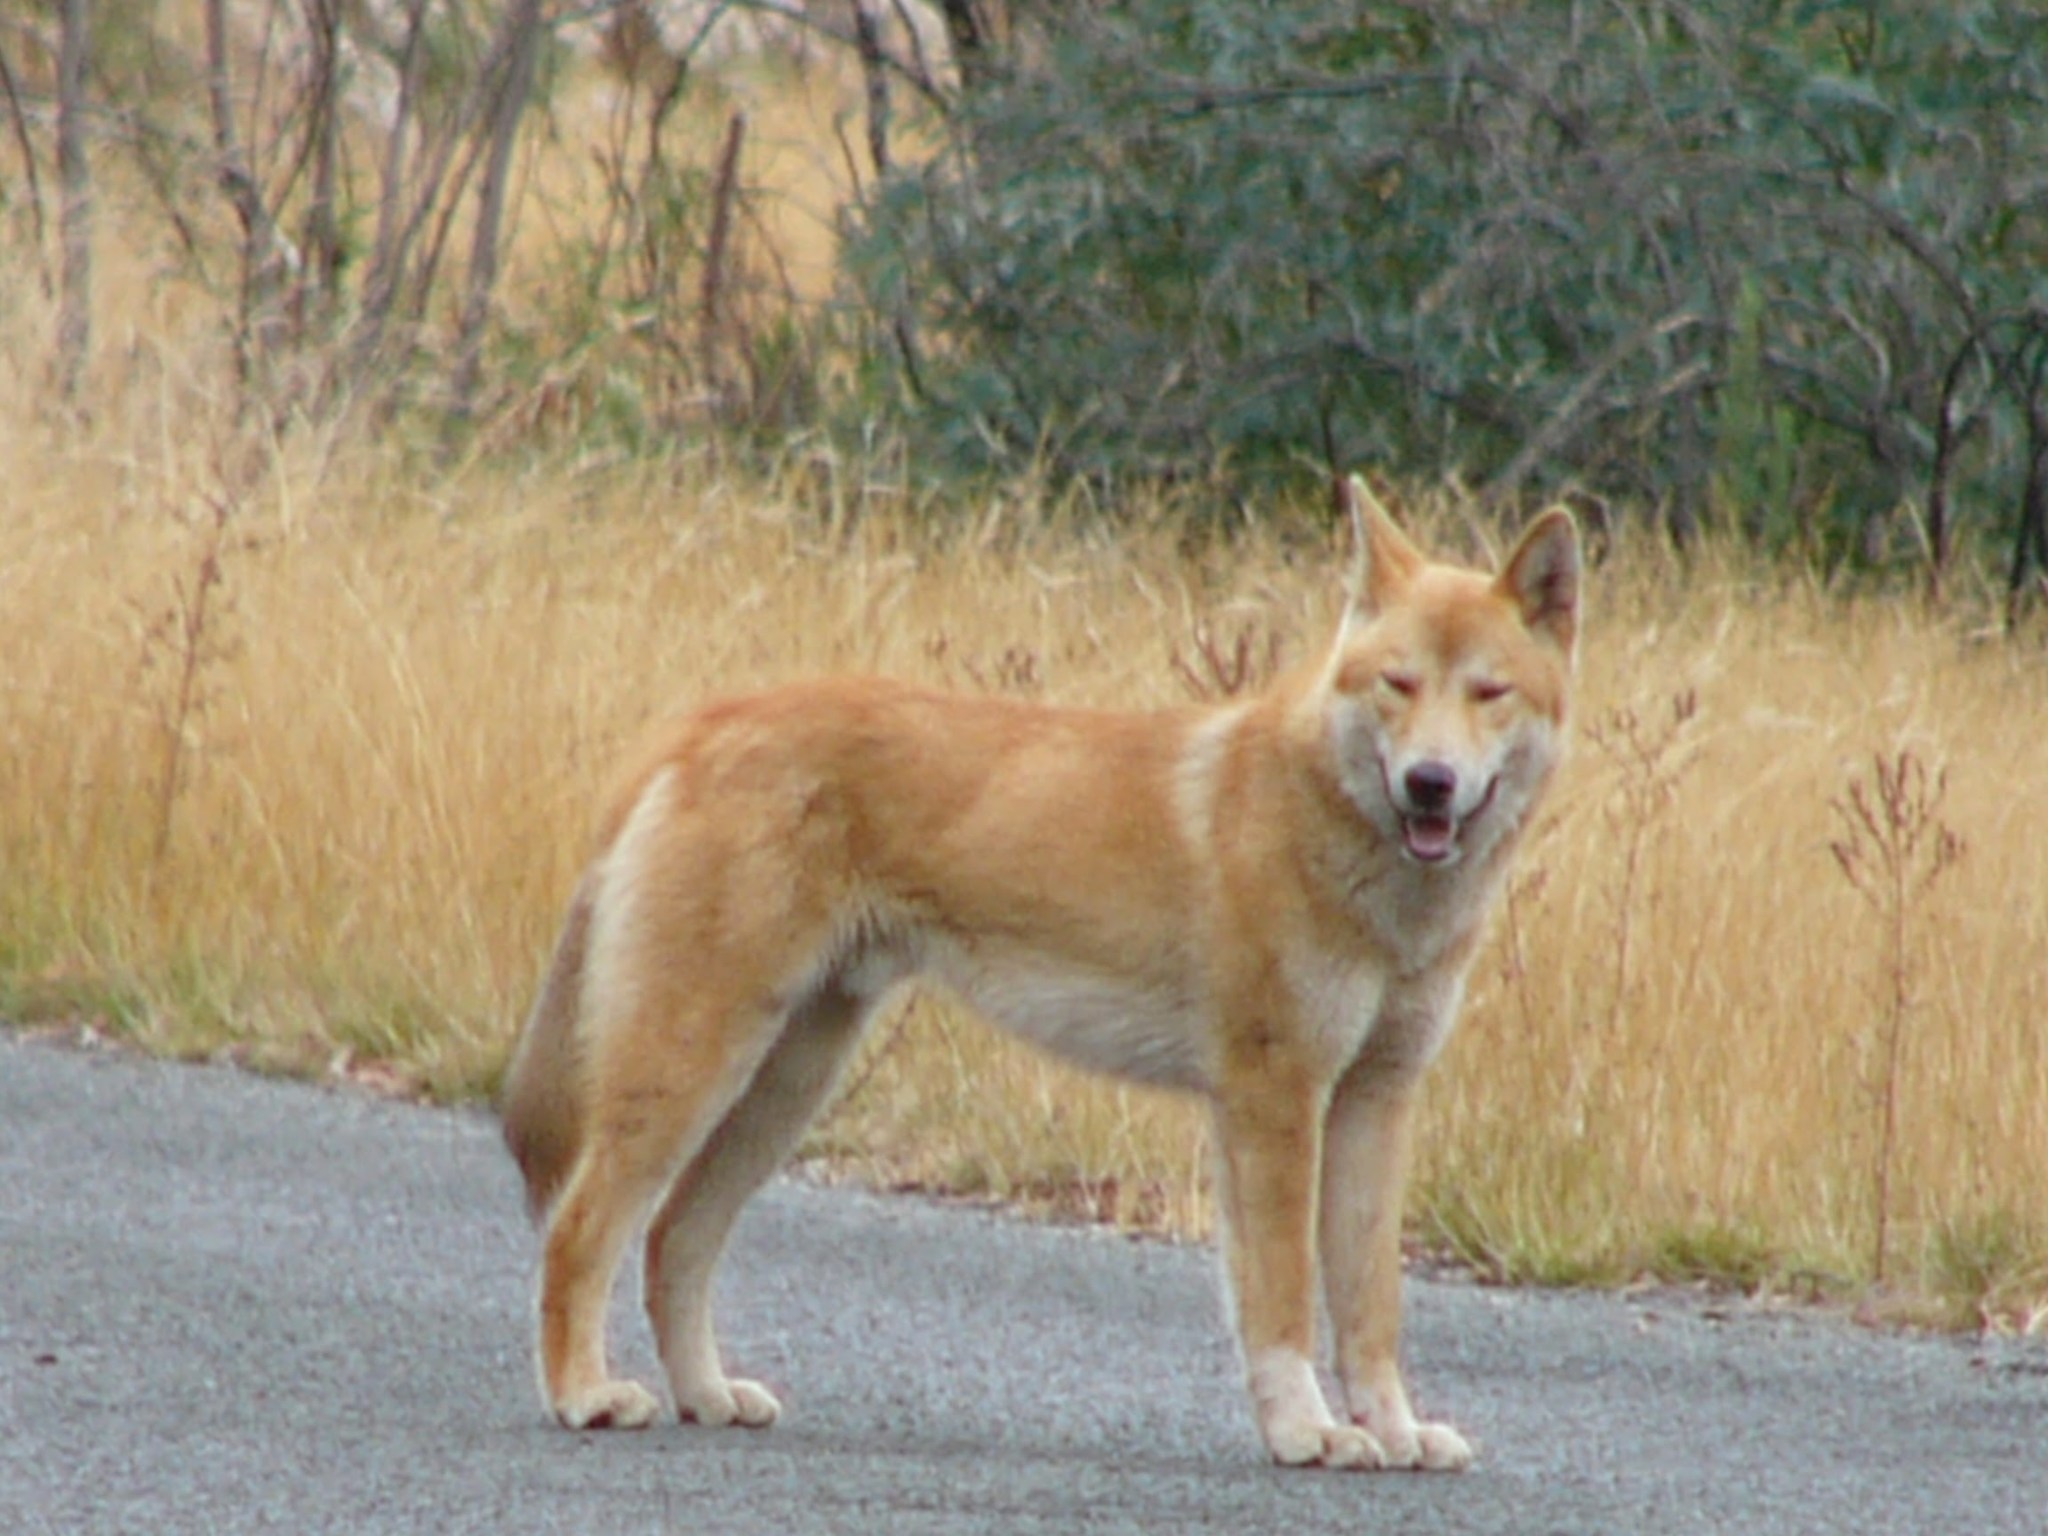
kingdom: Animalia
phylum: Chordata
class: Mammalia
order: Carnivora
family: Canidae
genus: Canis
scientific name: Canis lupus
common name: Gray wolf
